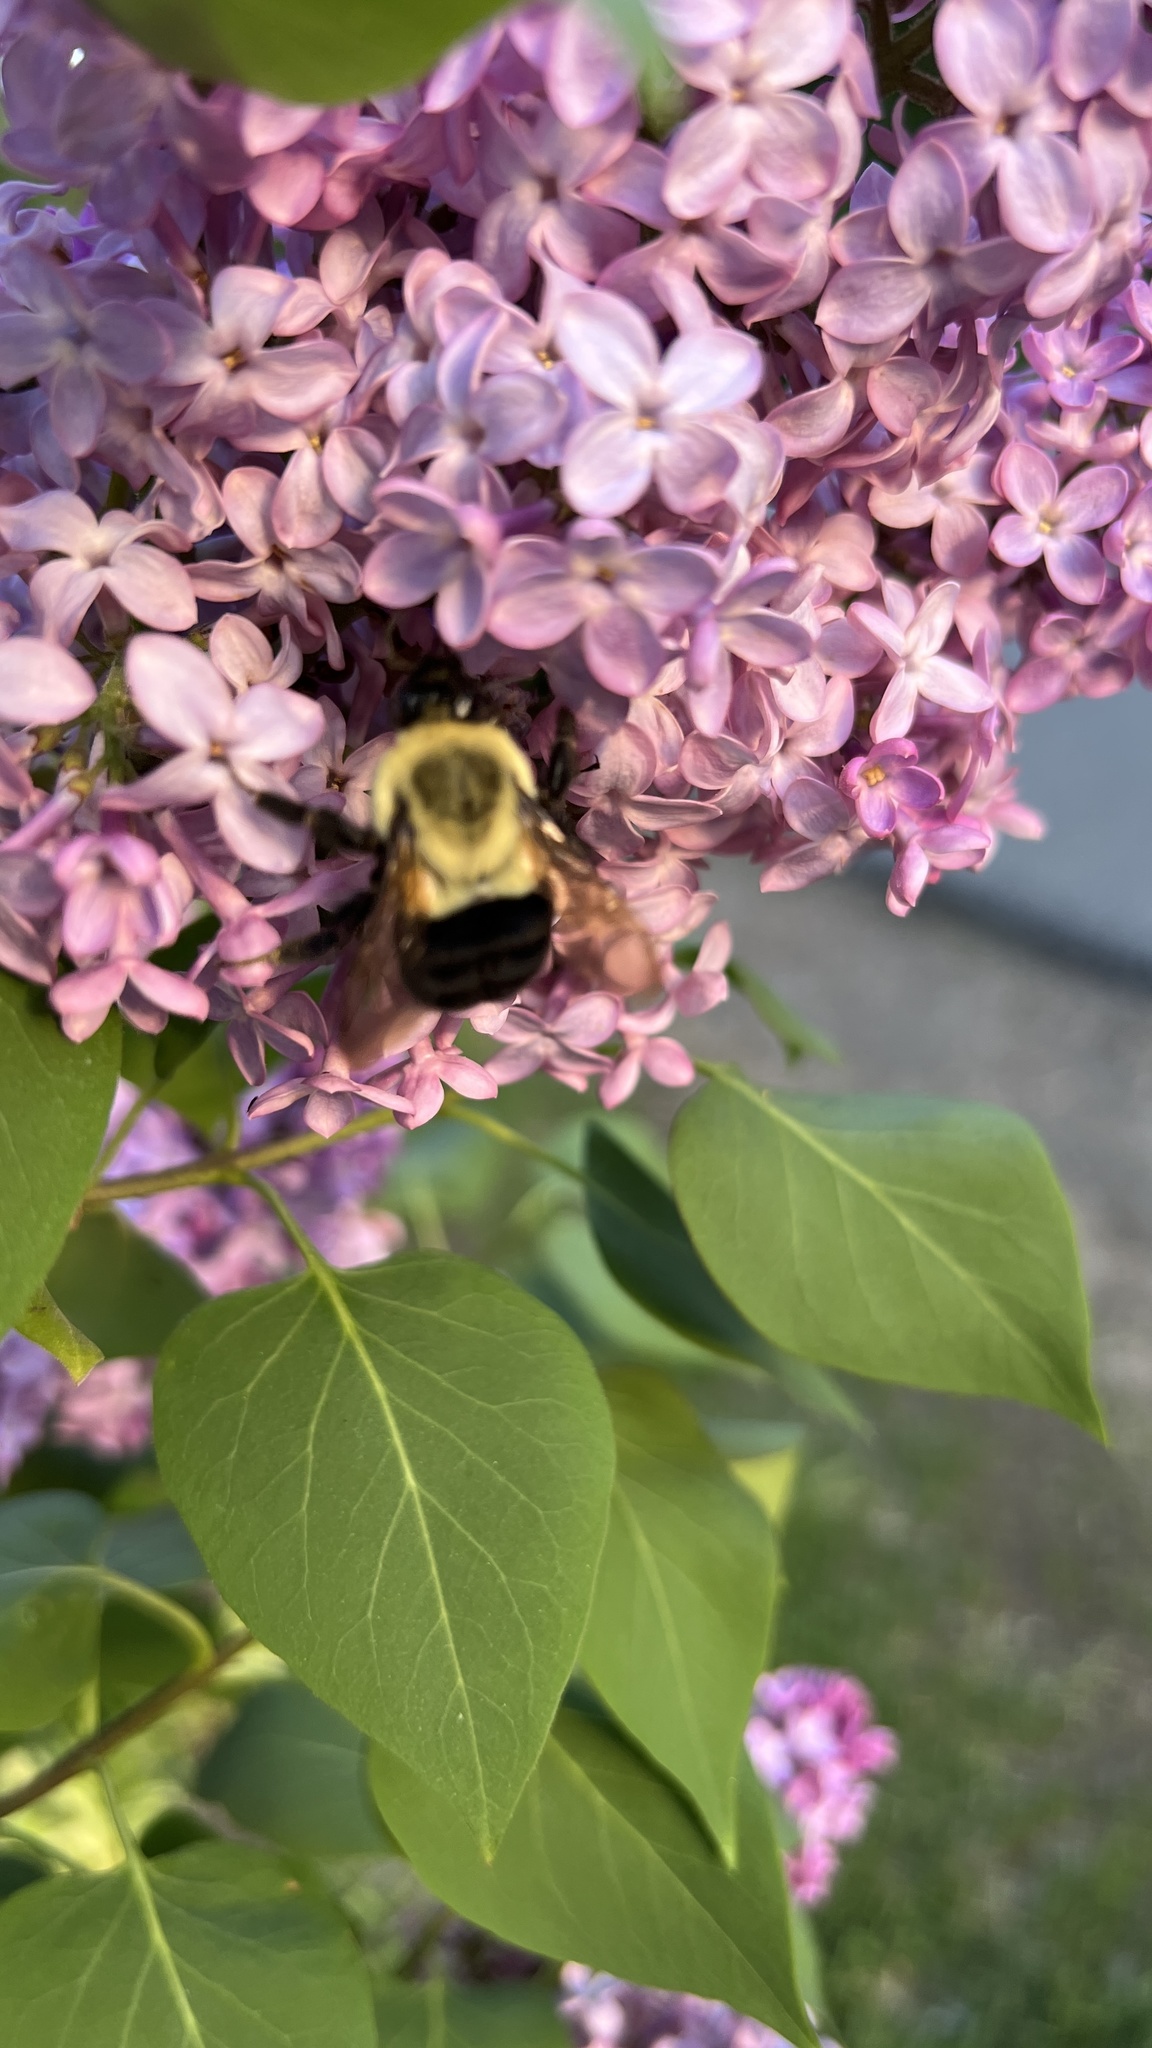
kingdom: Animalia
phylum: Arthropoda
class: Insecta
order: Hymenoptera
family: Apidae
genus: Bombus
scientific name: Bombus impatiens
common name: Common eastern bumble bee
